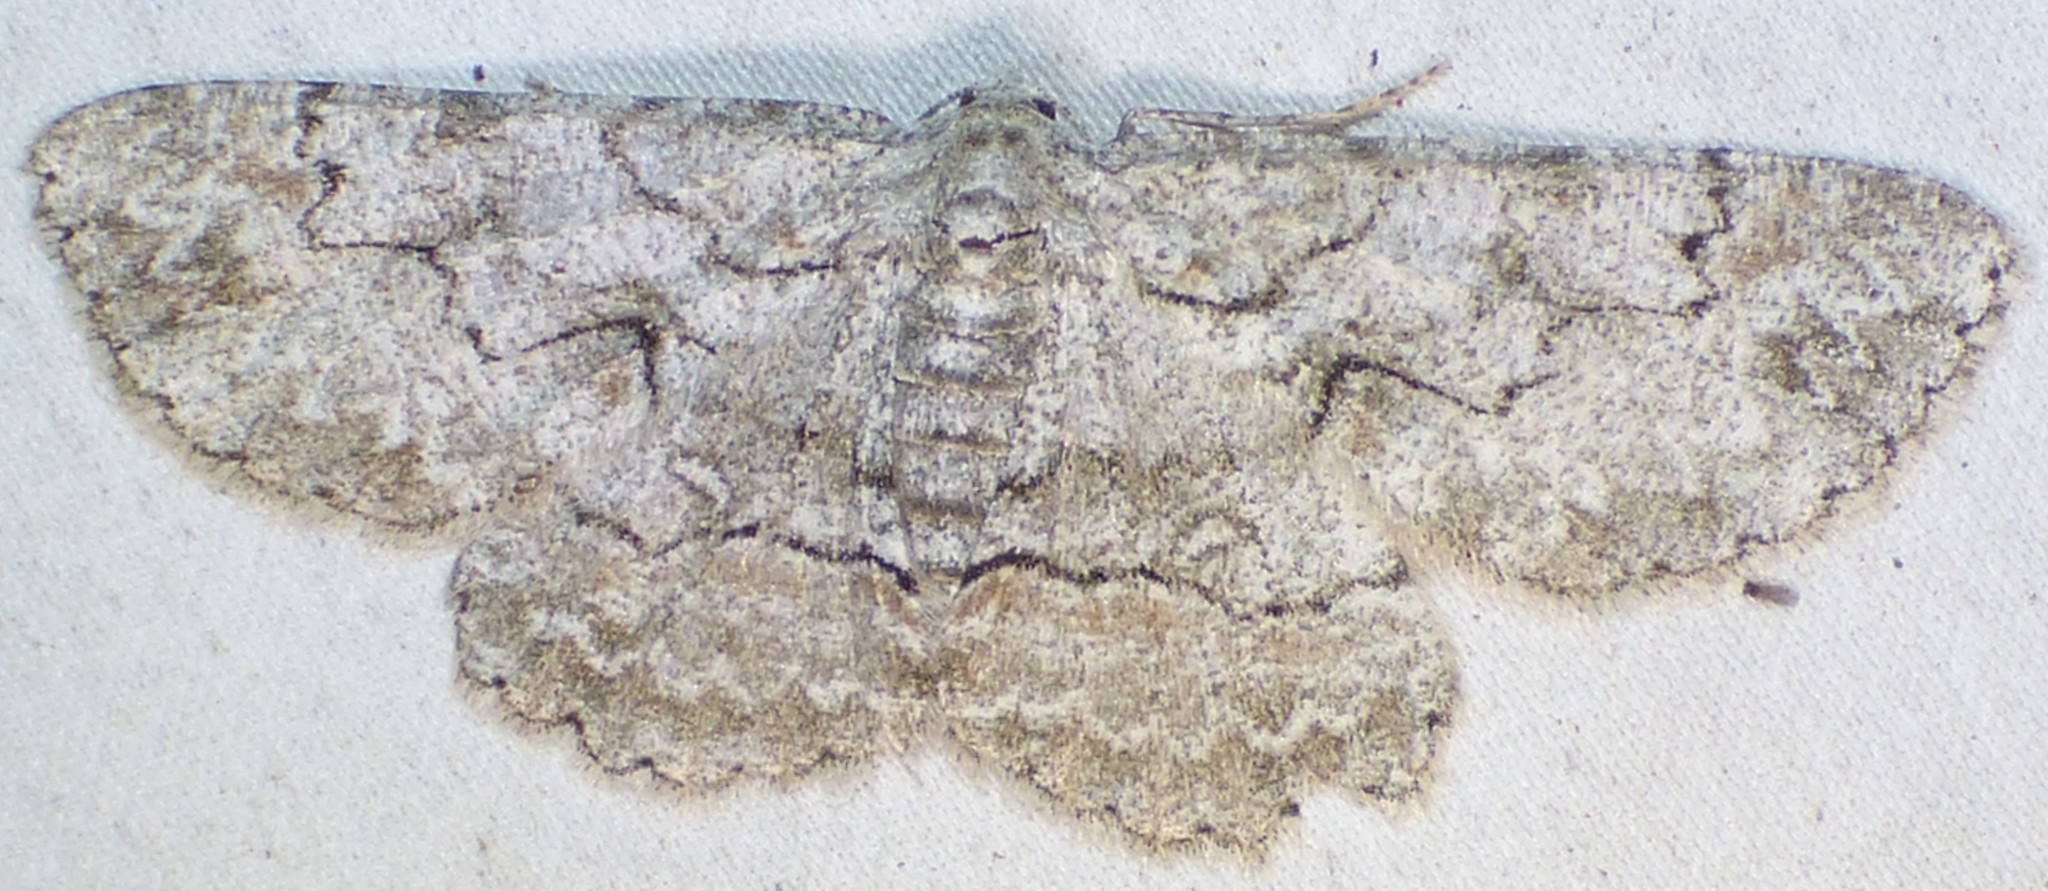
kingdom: Animalia
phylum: Arthropoda
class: Insecta
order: Lepidoptera
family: Geometridae
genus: Iridopsis
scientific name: Iridopsis defectaria
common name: Brown-shaded gray
